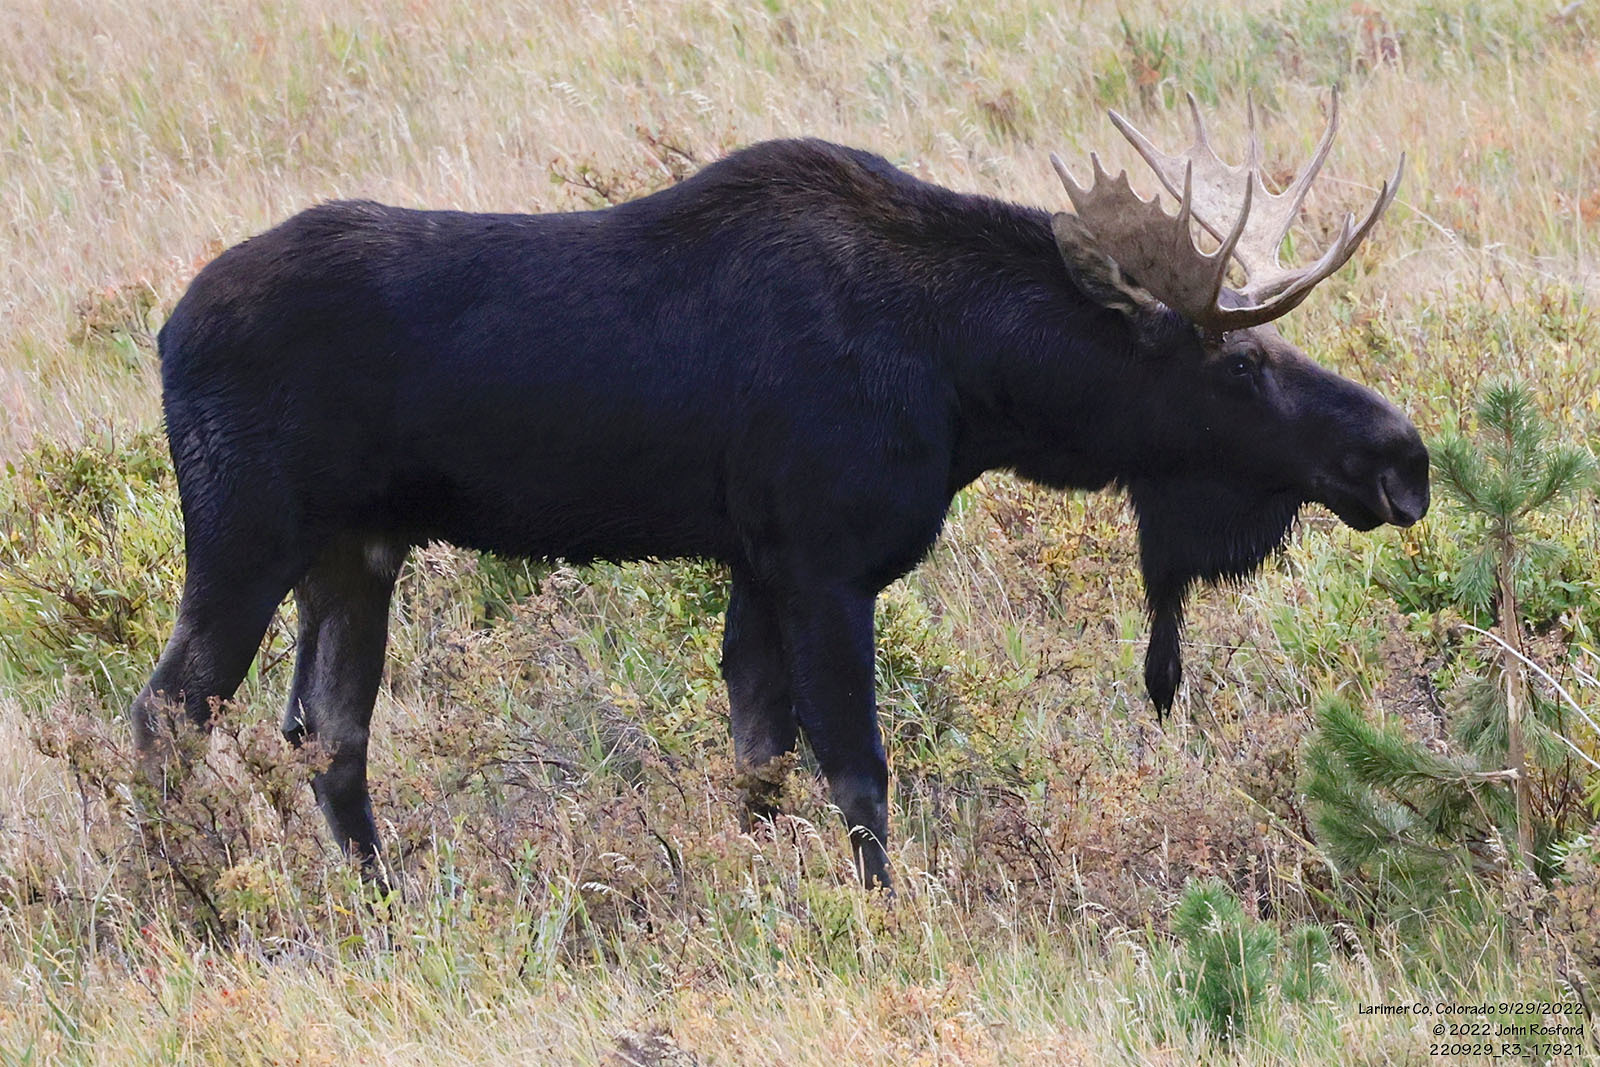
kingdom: Animalia
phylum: Chordata
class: Mammalia
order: Artiodactyla
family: Cervidae
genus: Alces
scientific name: Alces alces
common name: Moose
